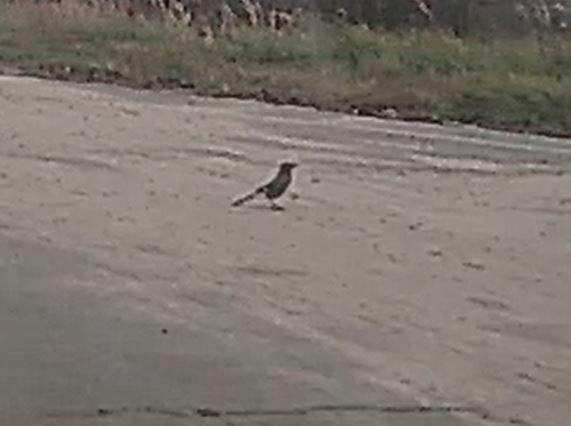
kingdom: Animalia
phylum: Chordata
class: Aves
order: Passeriformes
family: Corvidae
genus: Garrulus
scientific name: Garrulus glandarius
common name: Eurasian jay
